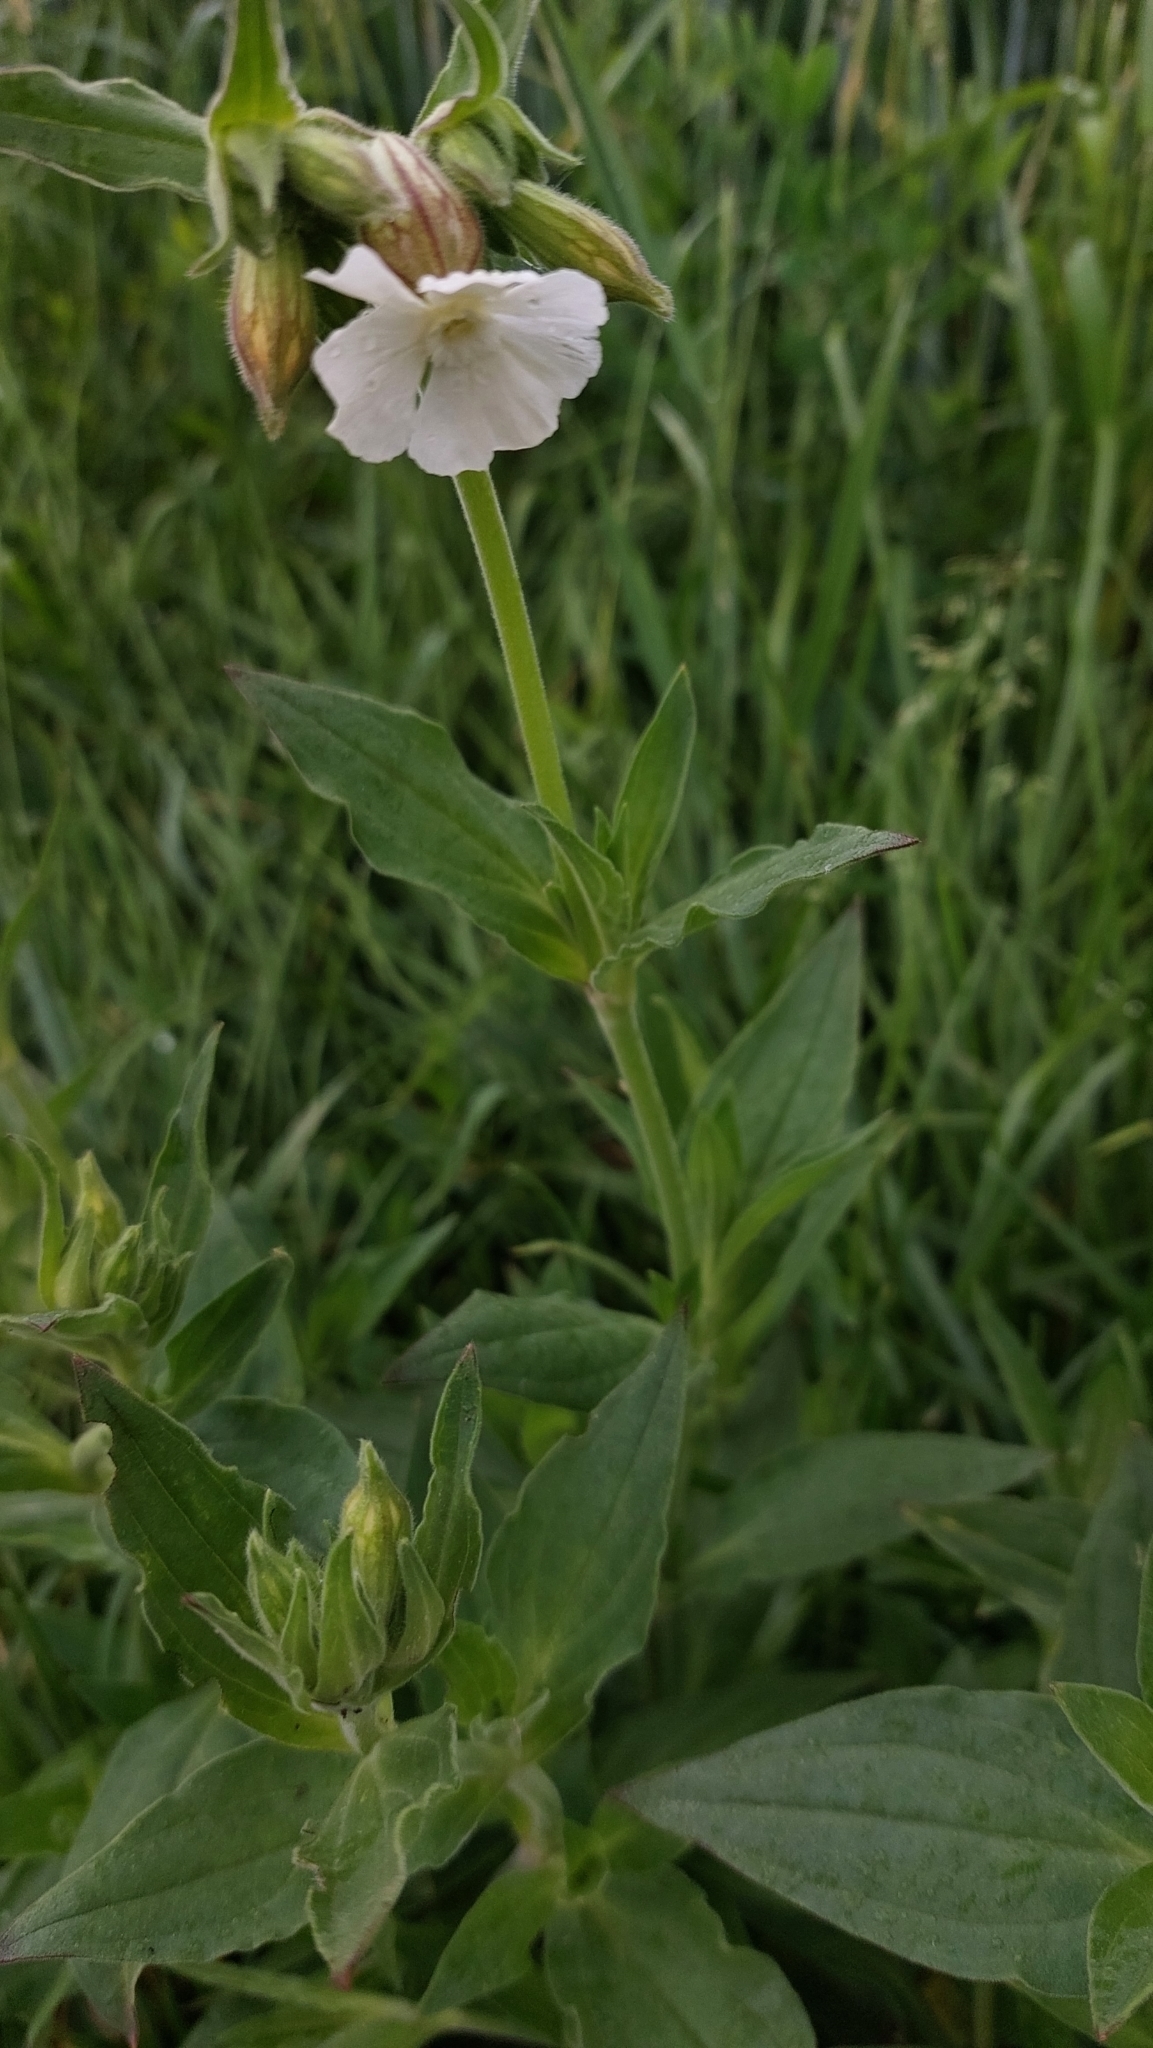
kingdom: Plantae
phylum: Tracheophyta
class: Magnoliopsida
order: Caryophyllales
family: Caryophyllaceae
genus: Silene
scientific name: Silene latifolia
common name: White campion
